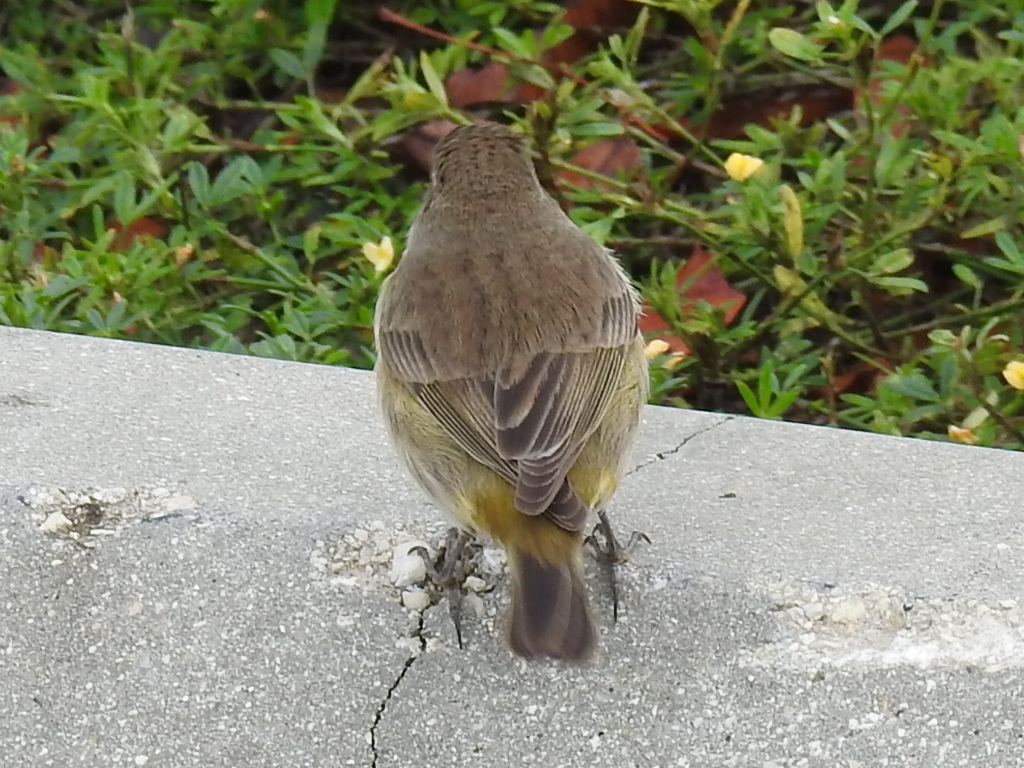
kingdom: Animalia
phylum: Chordata
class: Aves
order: Passeriformes
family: Parulidae
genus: Setophaga
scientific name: Setophaga palmarum
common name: Palm warbler
